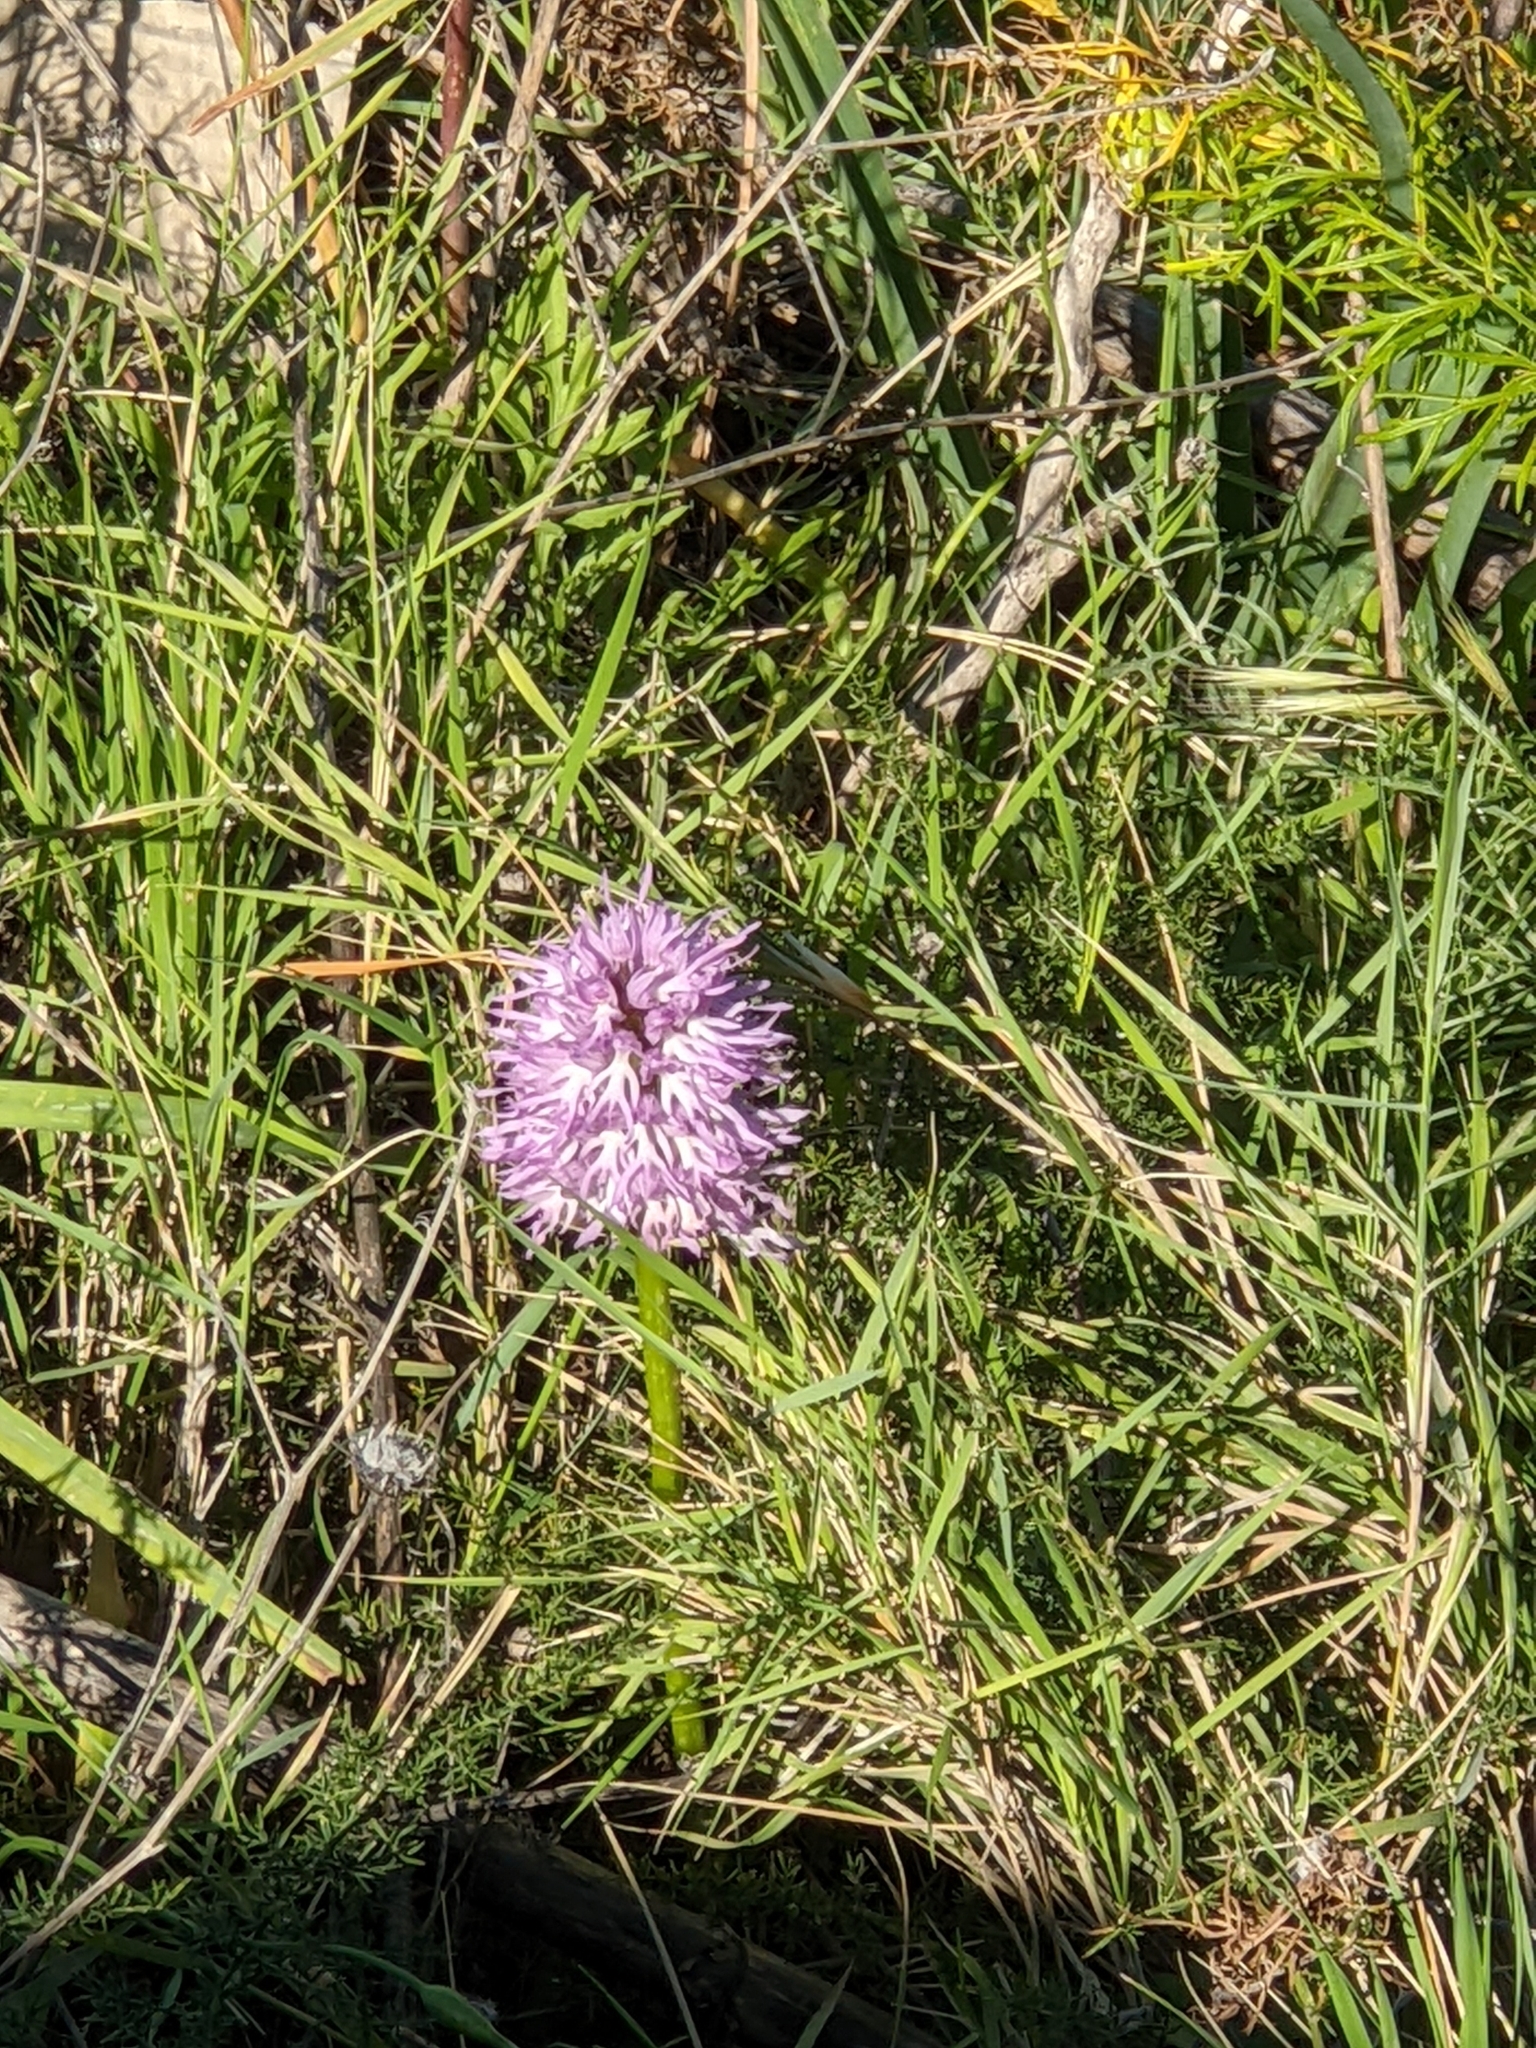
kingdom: Plantae
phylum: Tracheophyta
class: Liliopsida
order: Asparagales
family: Orchidaceae
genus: Orchis
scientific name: Orchis italica
